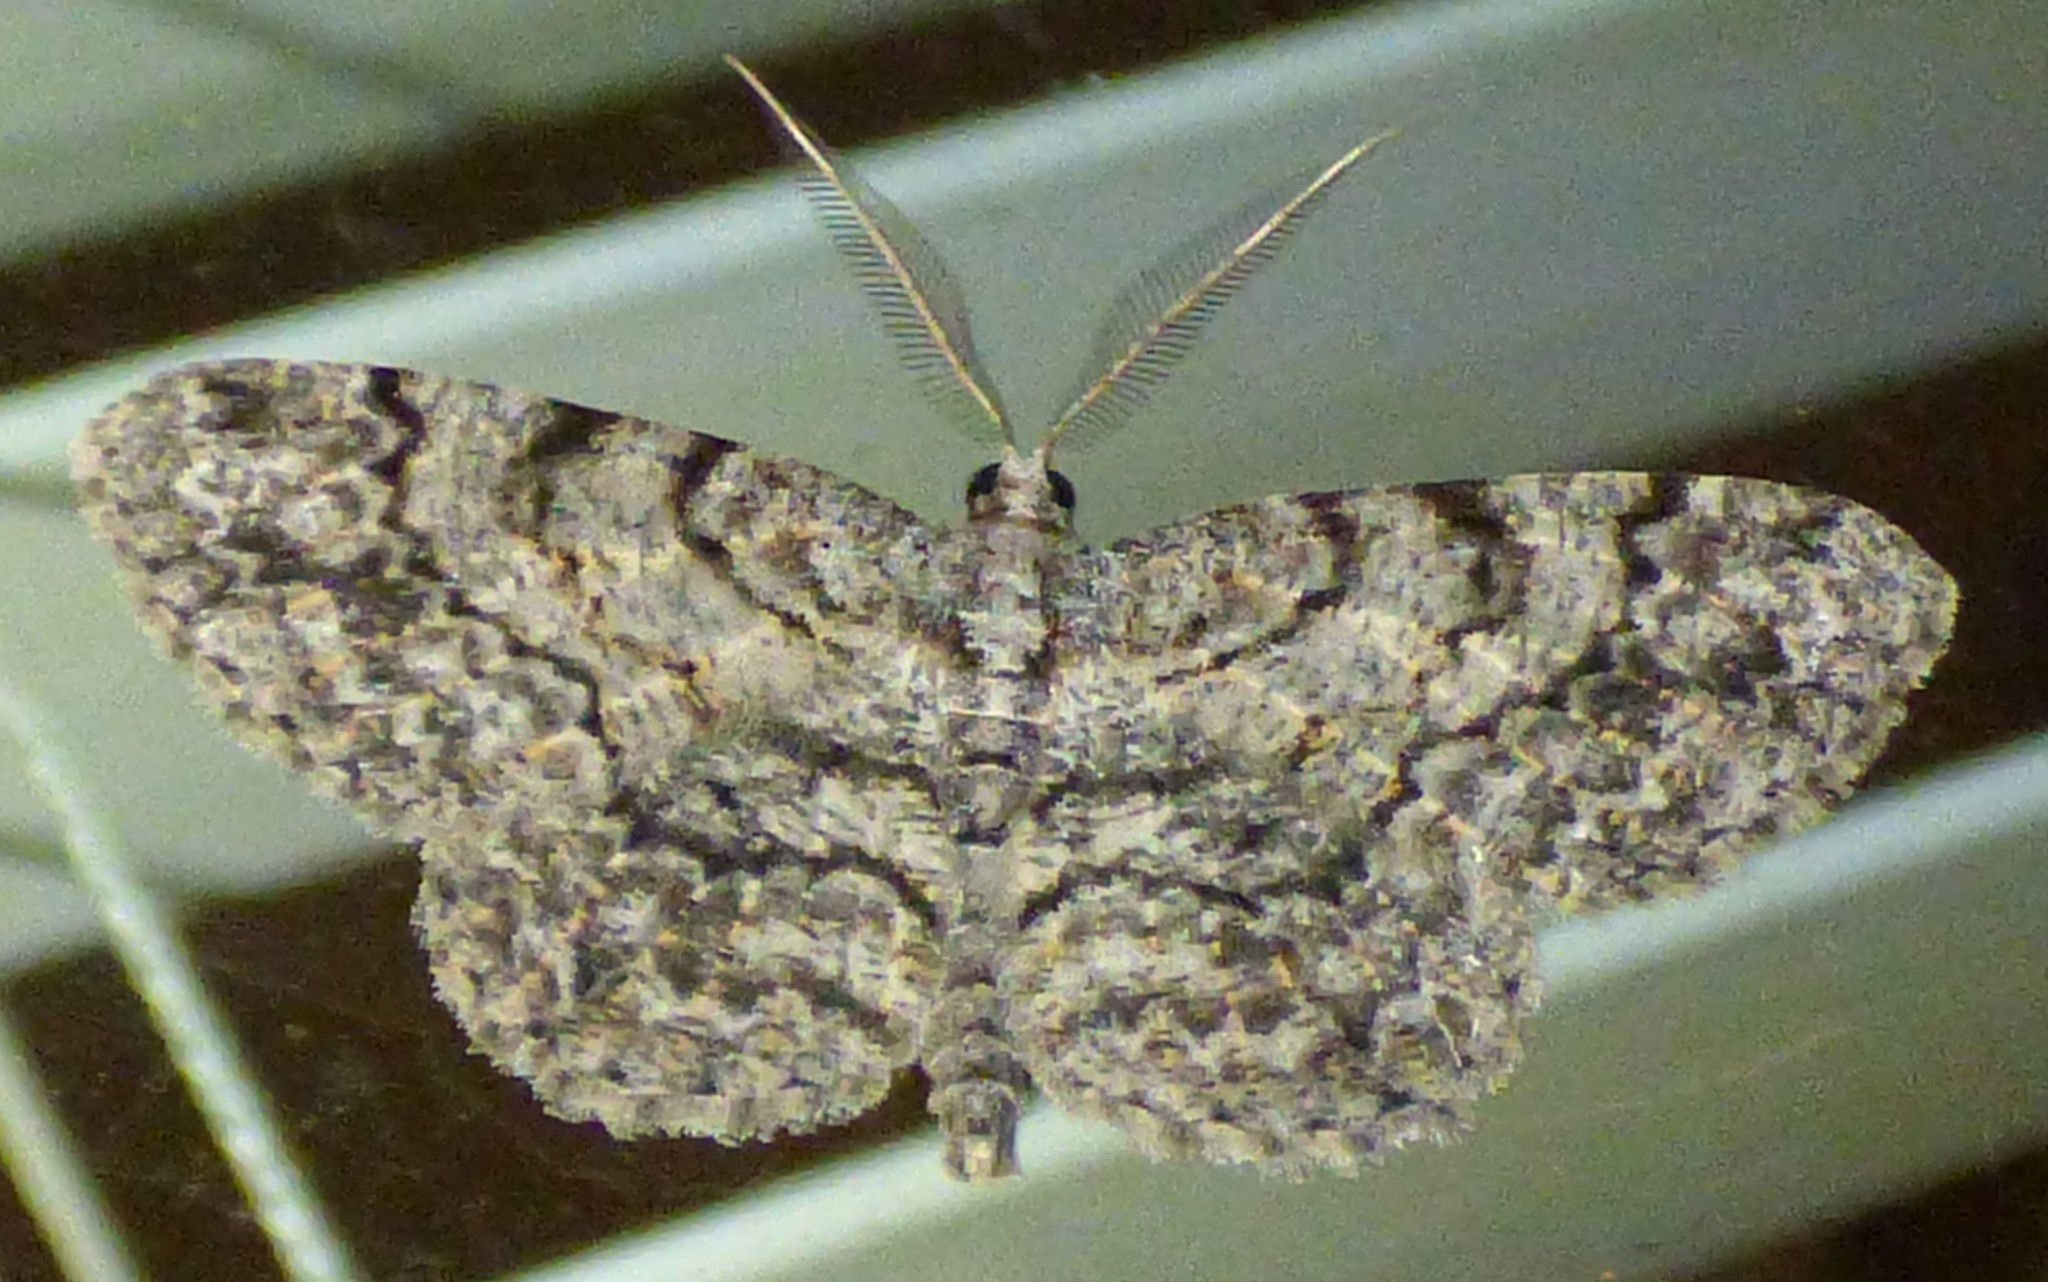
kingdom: Animalia
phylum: Arthropoda
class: Insecta
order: Lepidoptera
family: Geometridae
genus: Protoboarmia
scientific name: Protoboarmia porcelaria
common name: Porcelain gray
